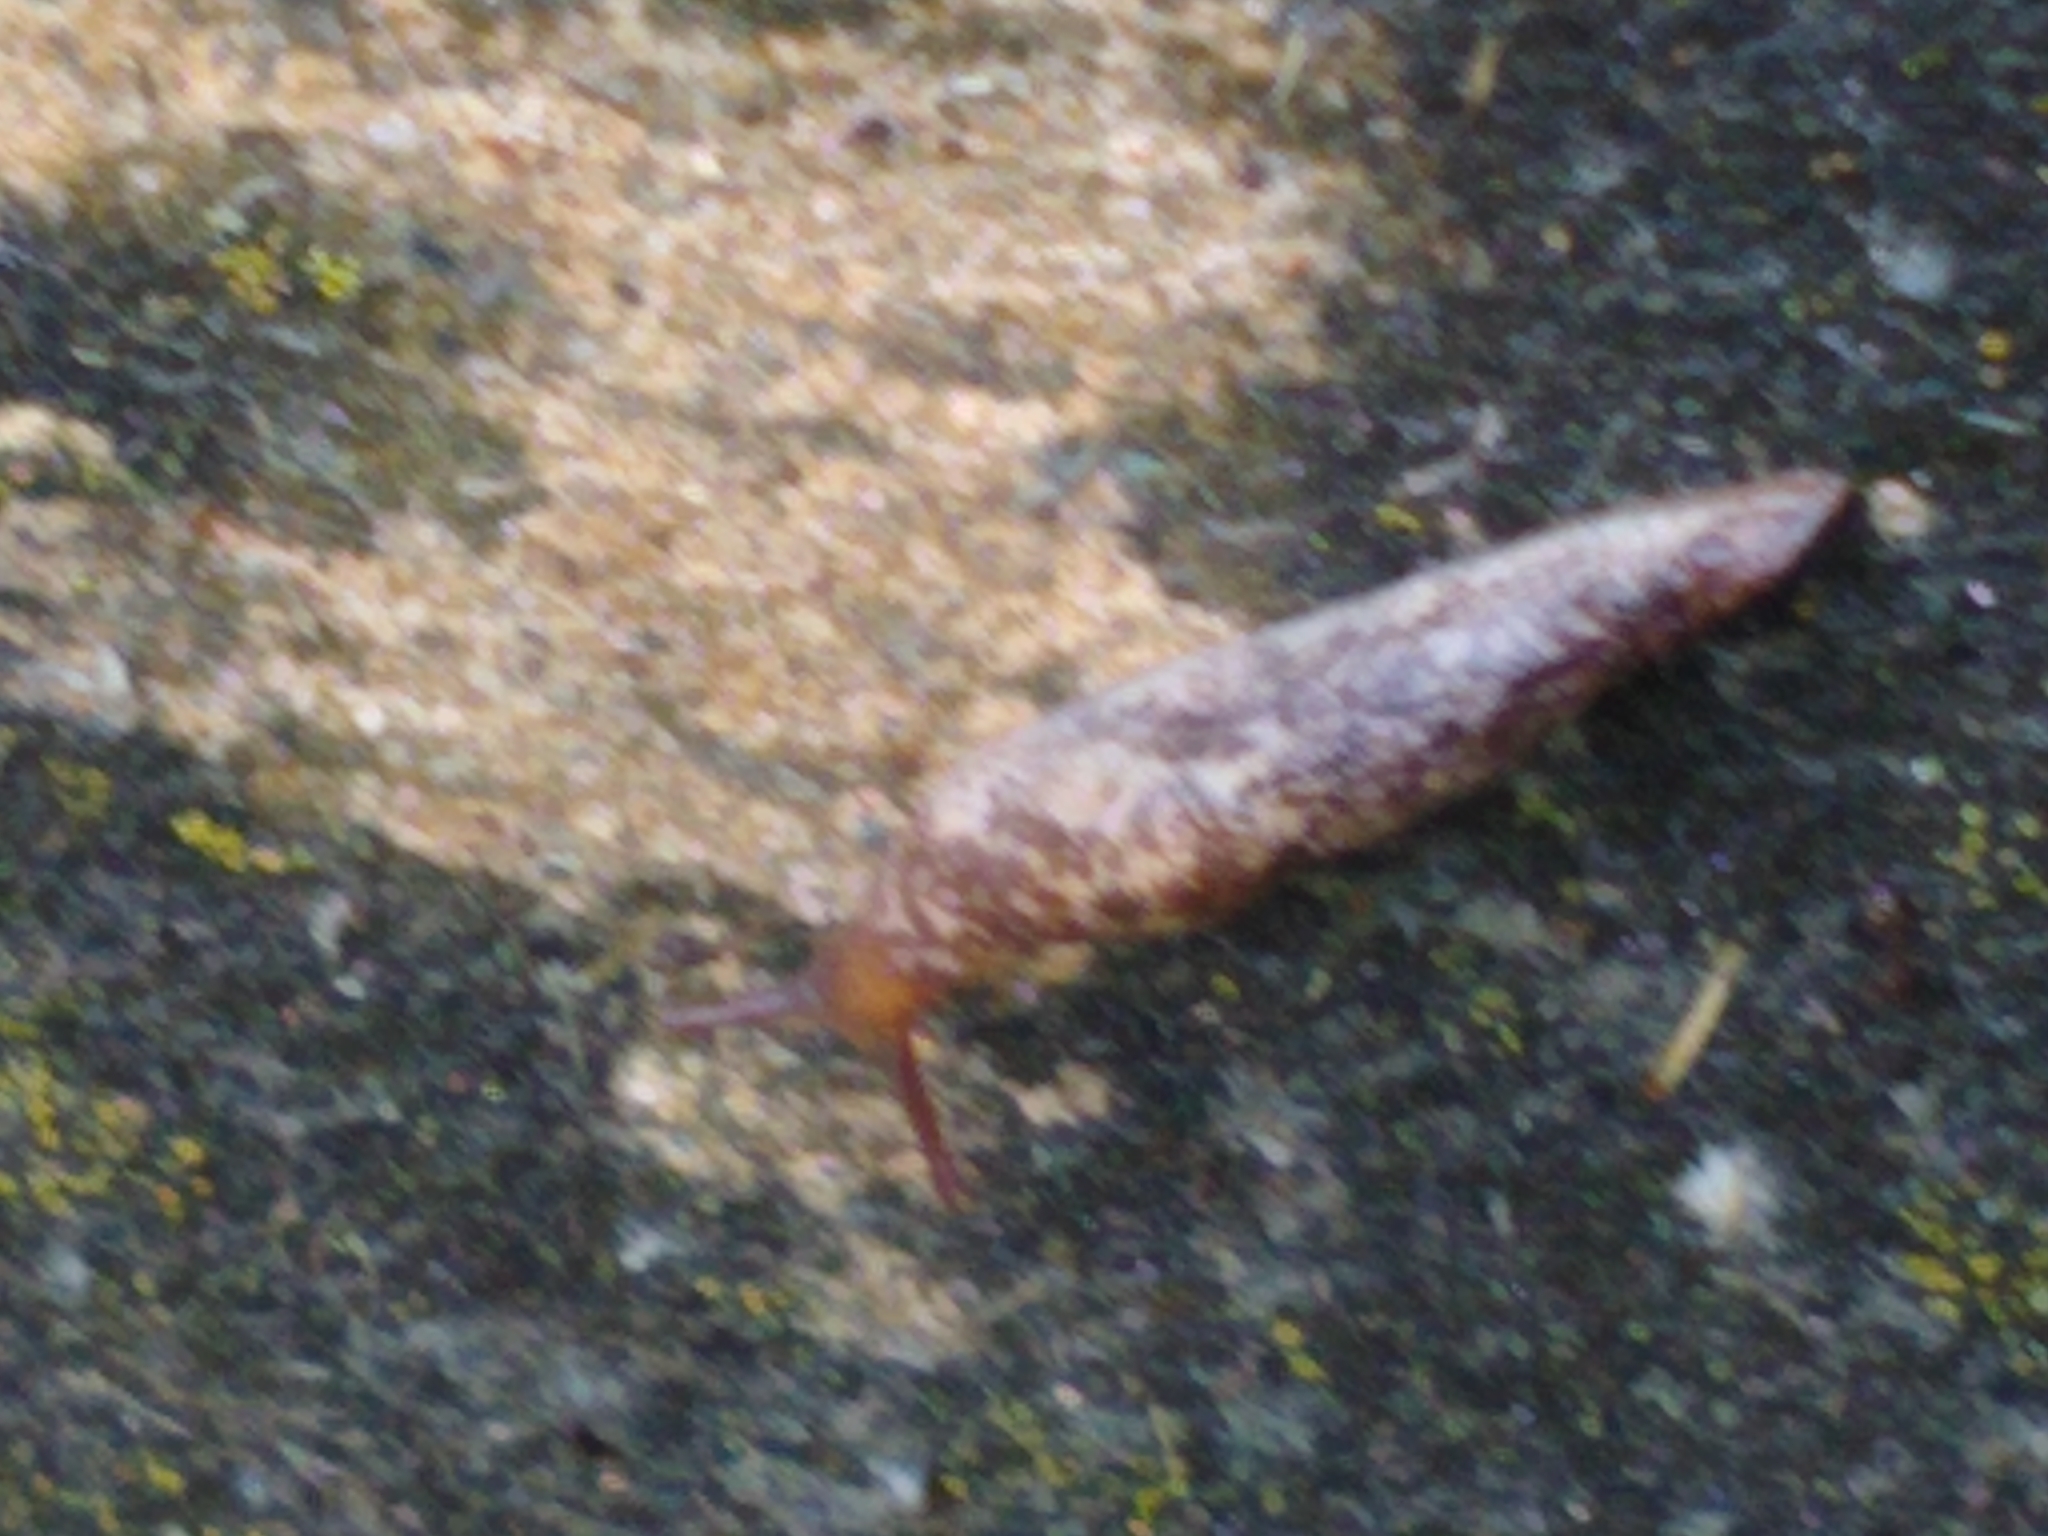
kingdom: Animalia
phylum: Mollusca
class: Gastropoda
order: Stylommatophora
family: Agriolimacidae
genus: Deroceras
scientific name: Deroceras reticulatum
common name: Gray field slug
